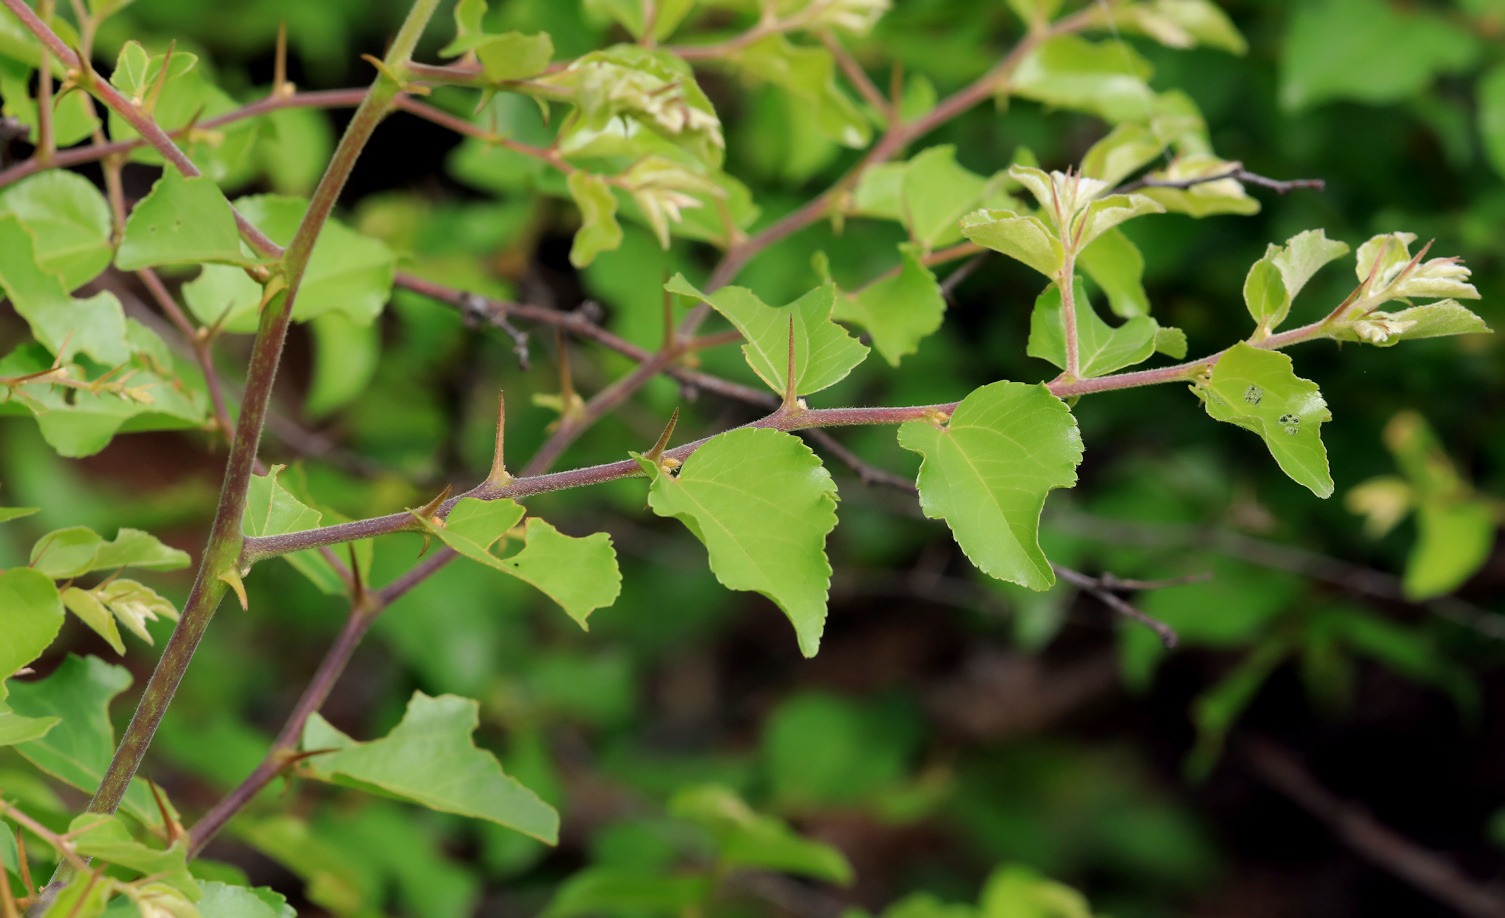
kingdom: Plantae
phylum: Tracheophyta
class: Magnoliopsida
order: Rosales
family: Rhamnaceae
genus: Ziziphus
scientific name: Ziziphus mucronata
